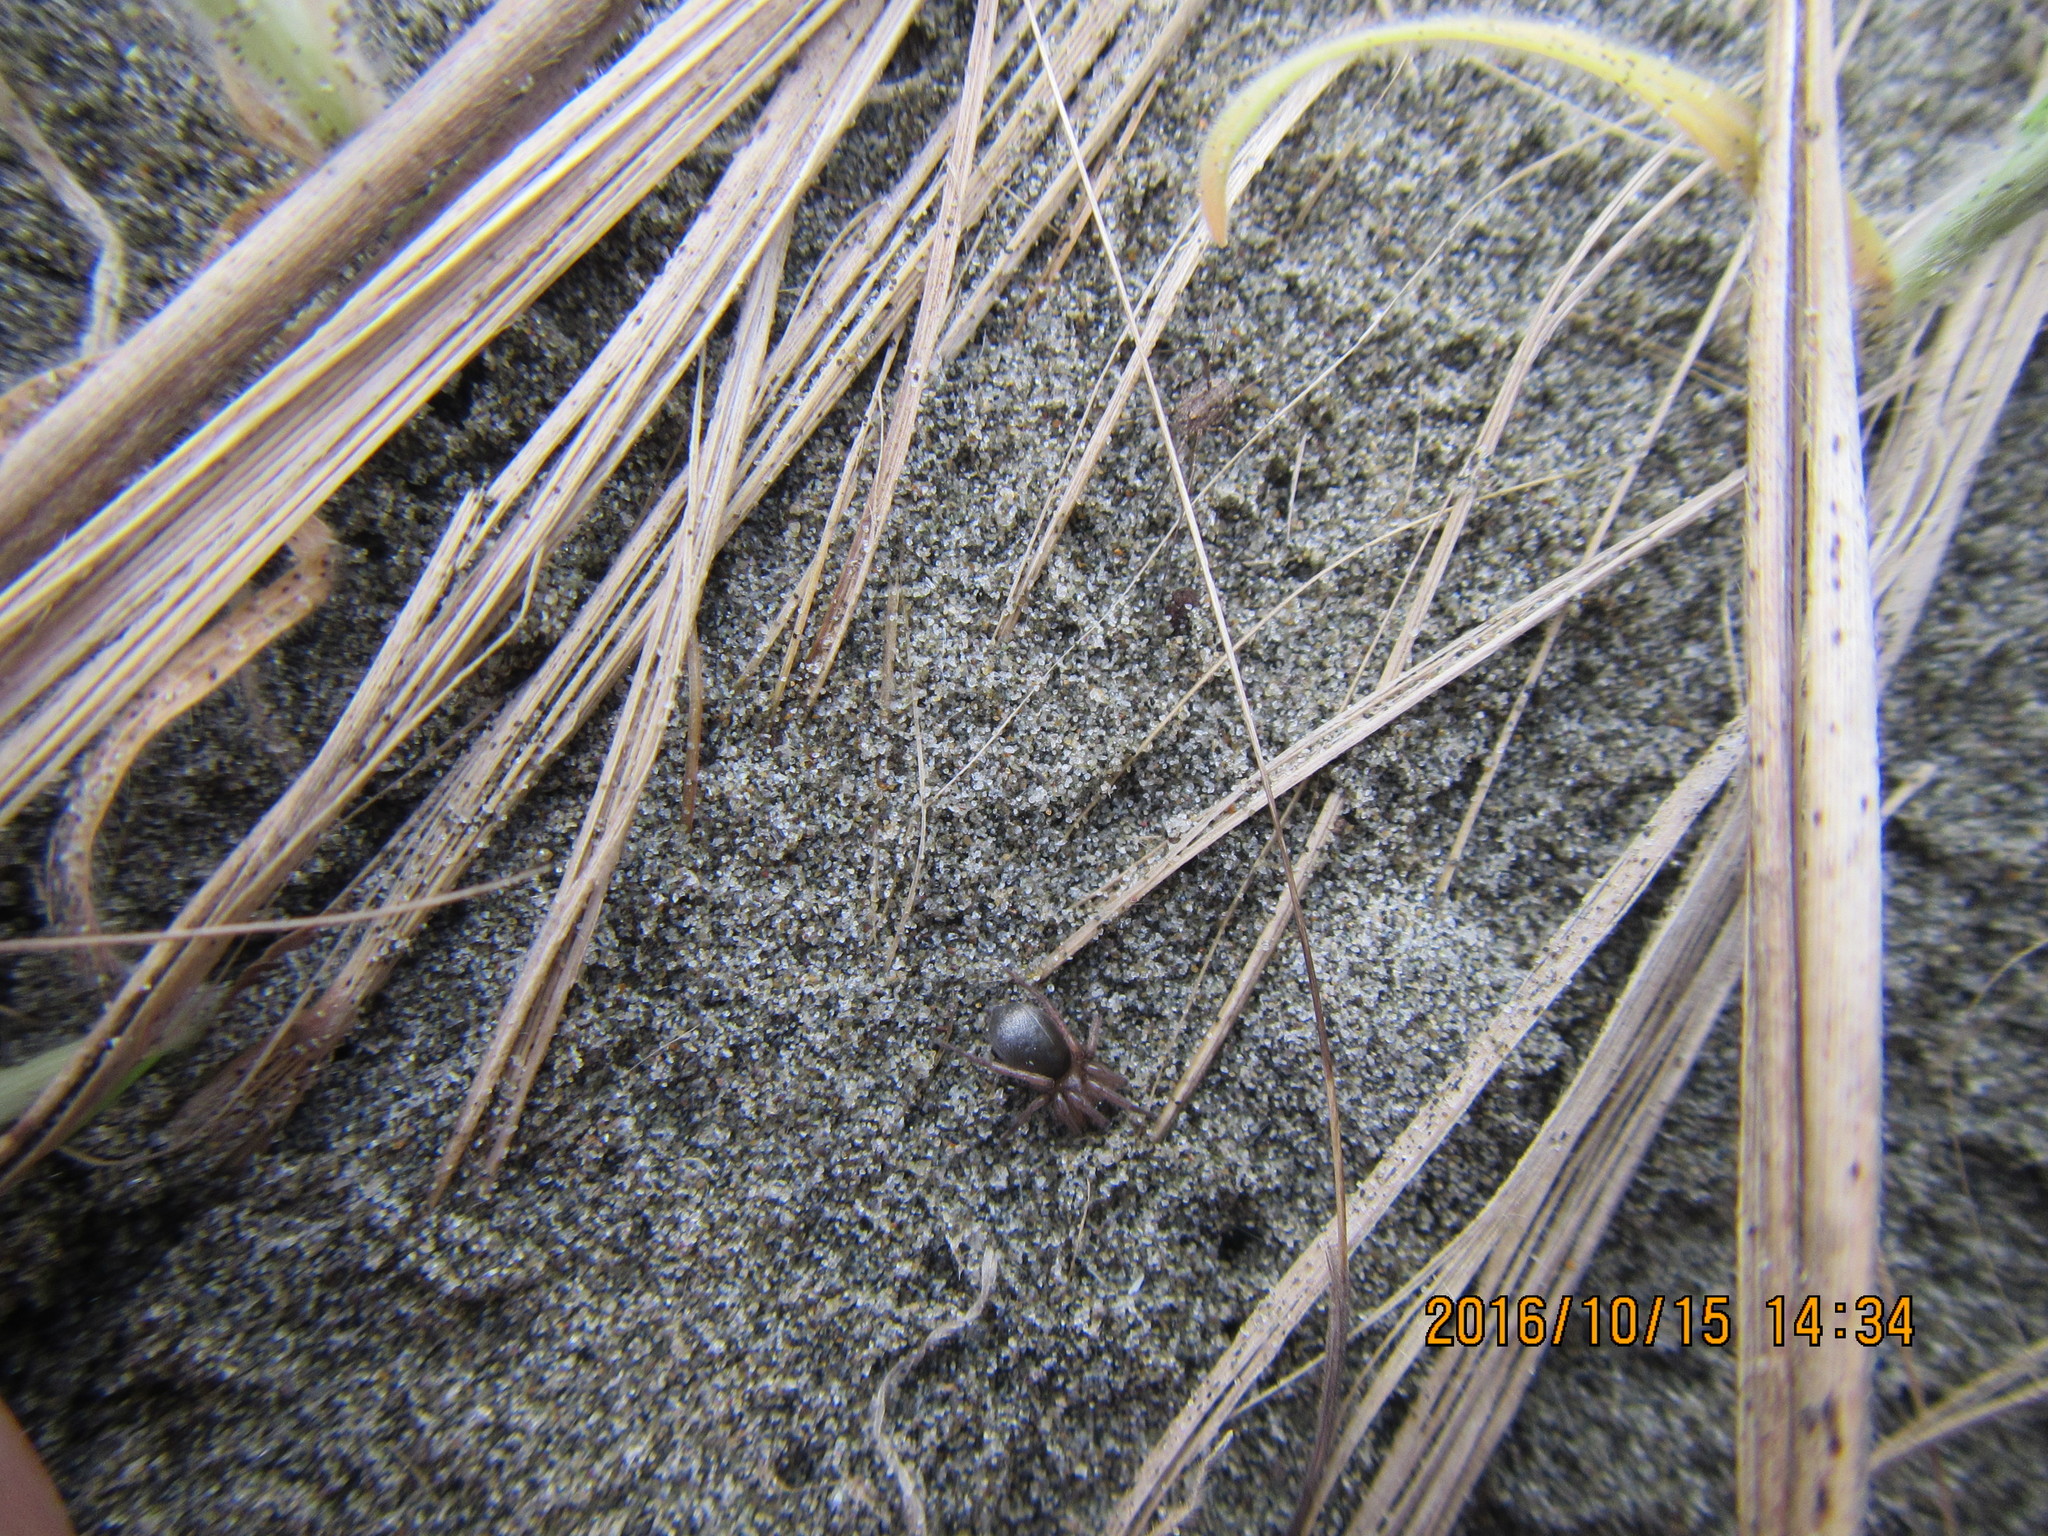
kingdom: Animalia
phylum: Arthropoda
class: Arachnida
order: Araneae
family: Gnaphosidae
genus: Anzacia
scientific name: Anzacia gemmea
